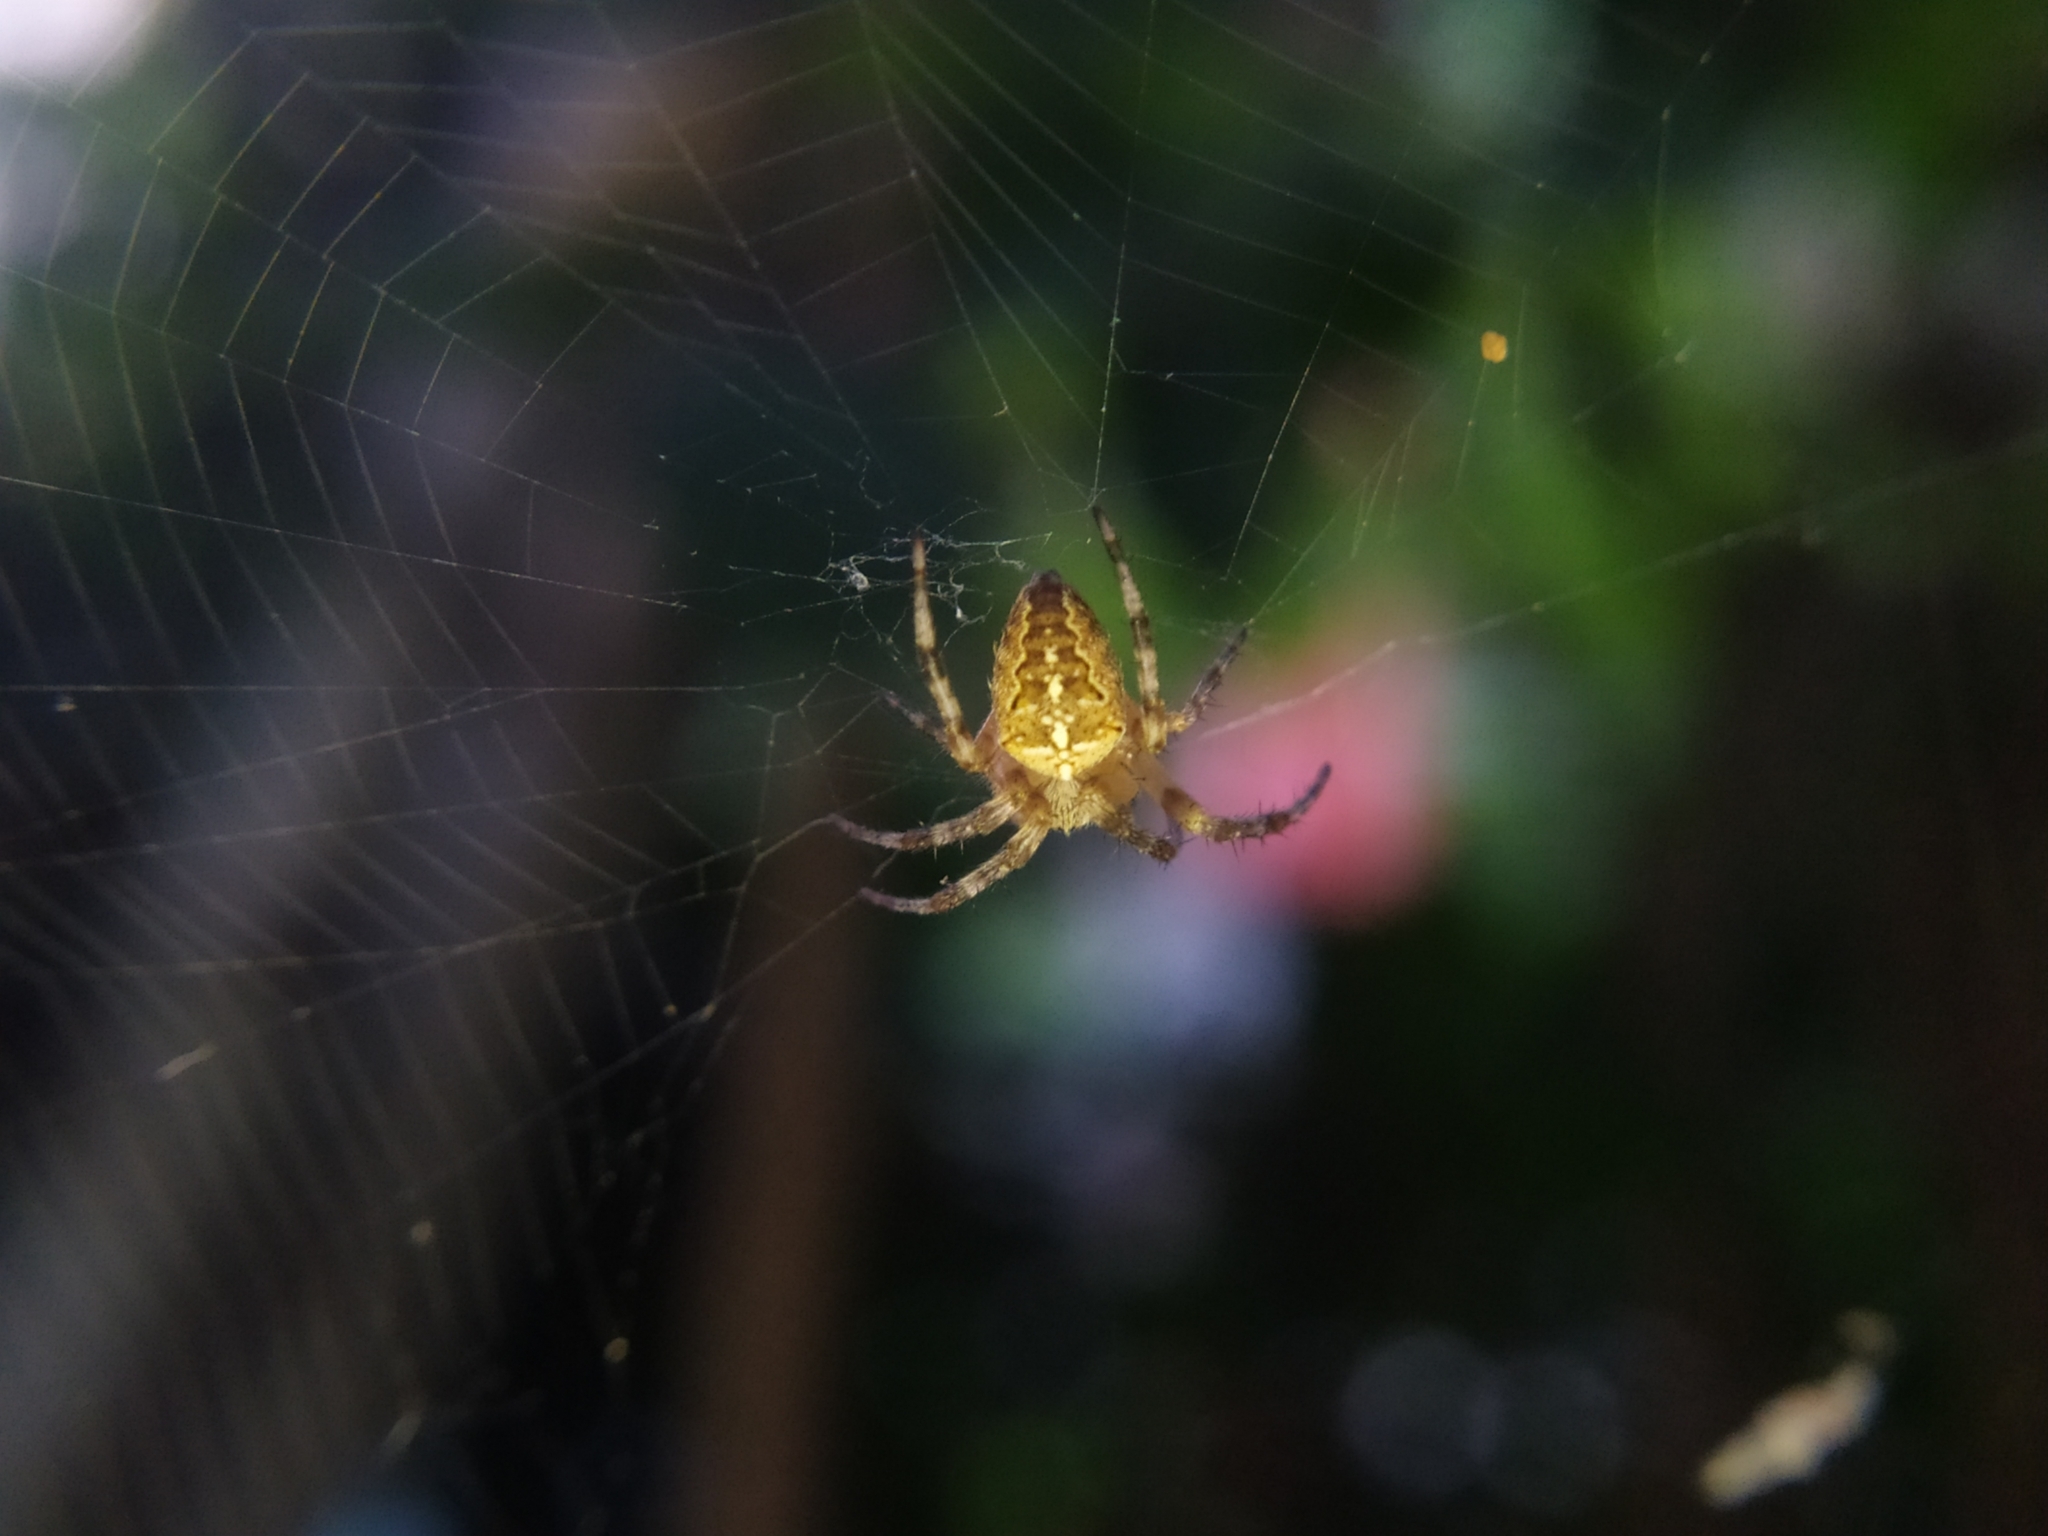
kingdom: Animalia
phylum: Arthropoda
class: Arachnida
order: Araneae
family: Araneidae
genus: Araneus
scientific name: Araneus diadematus
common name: Cross orbweaver
